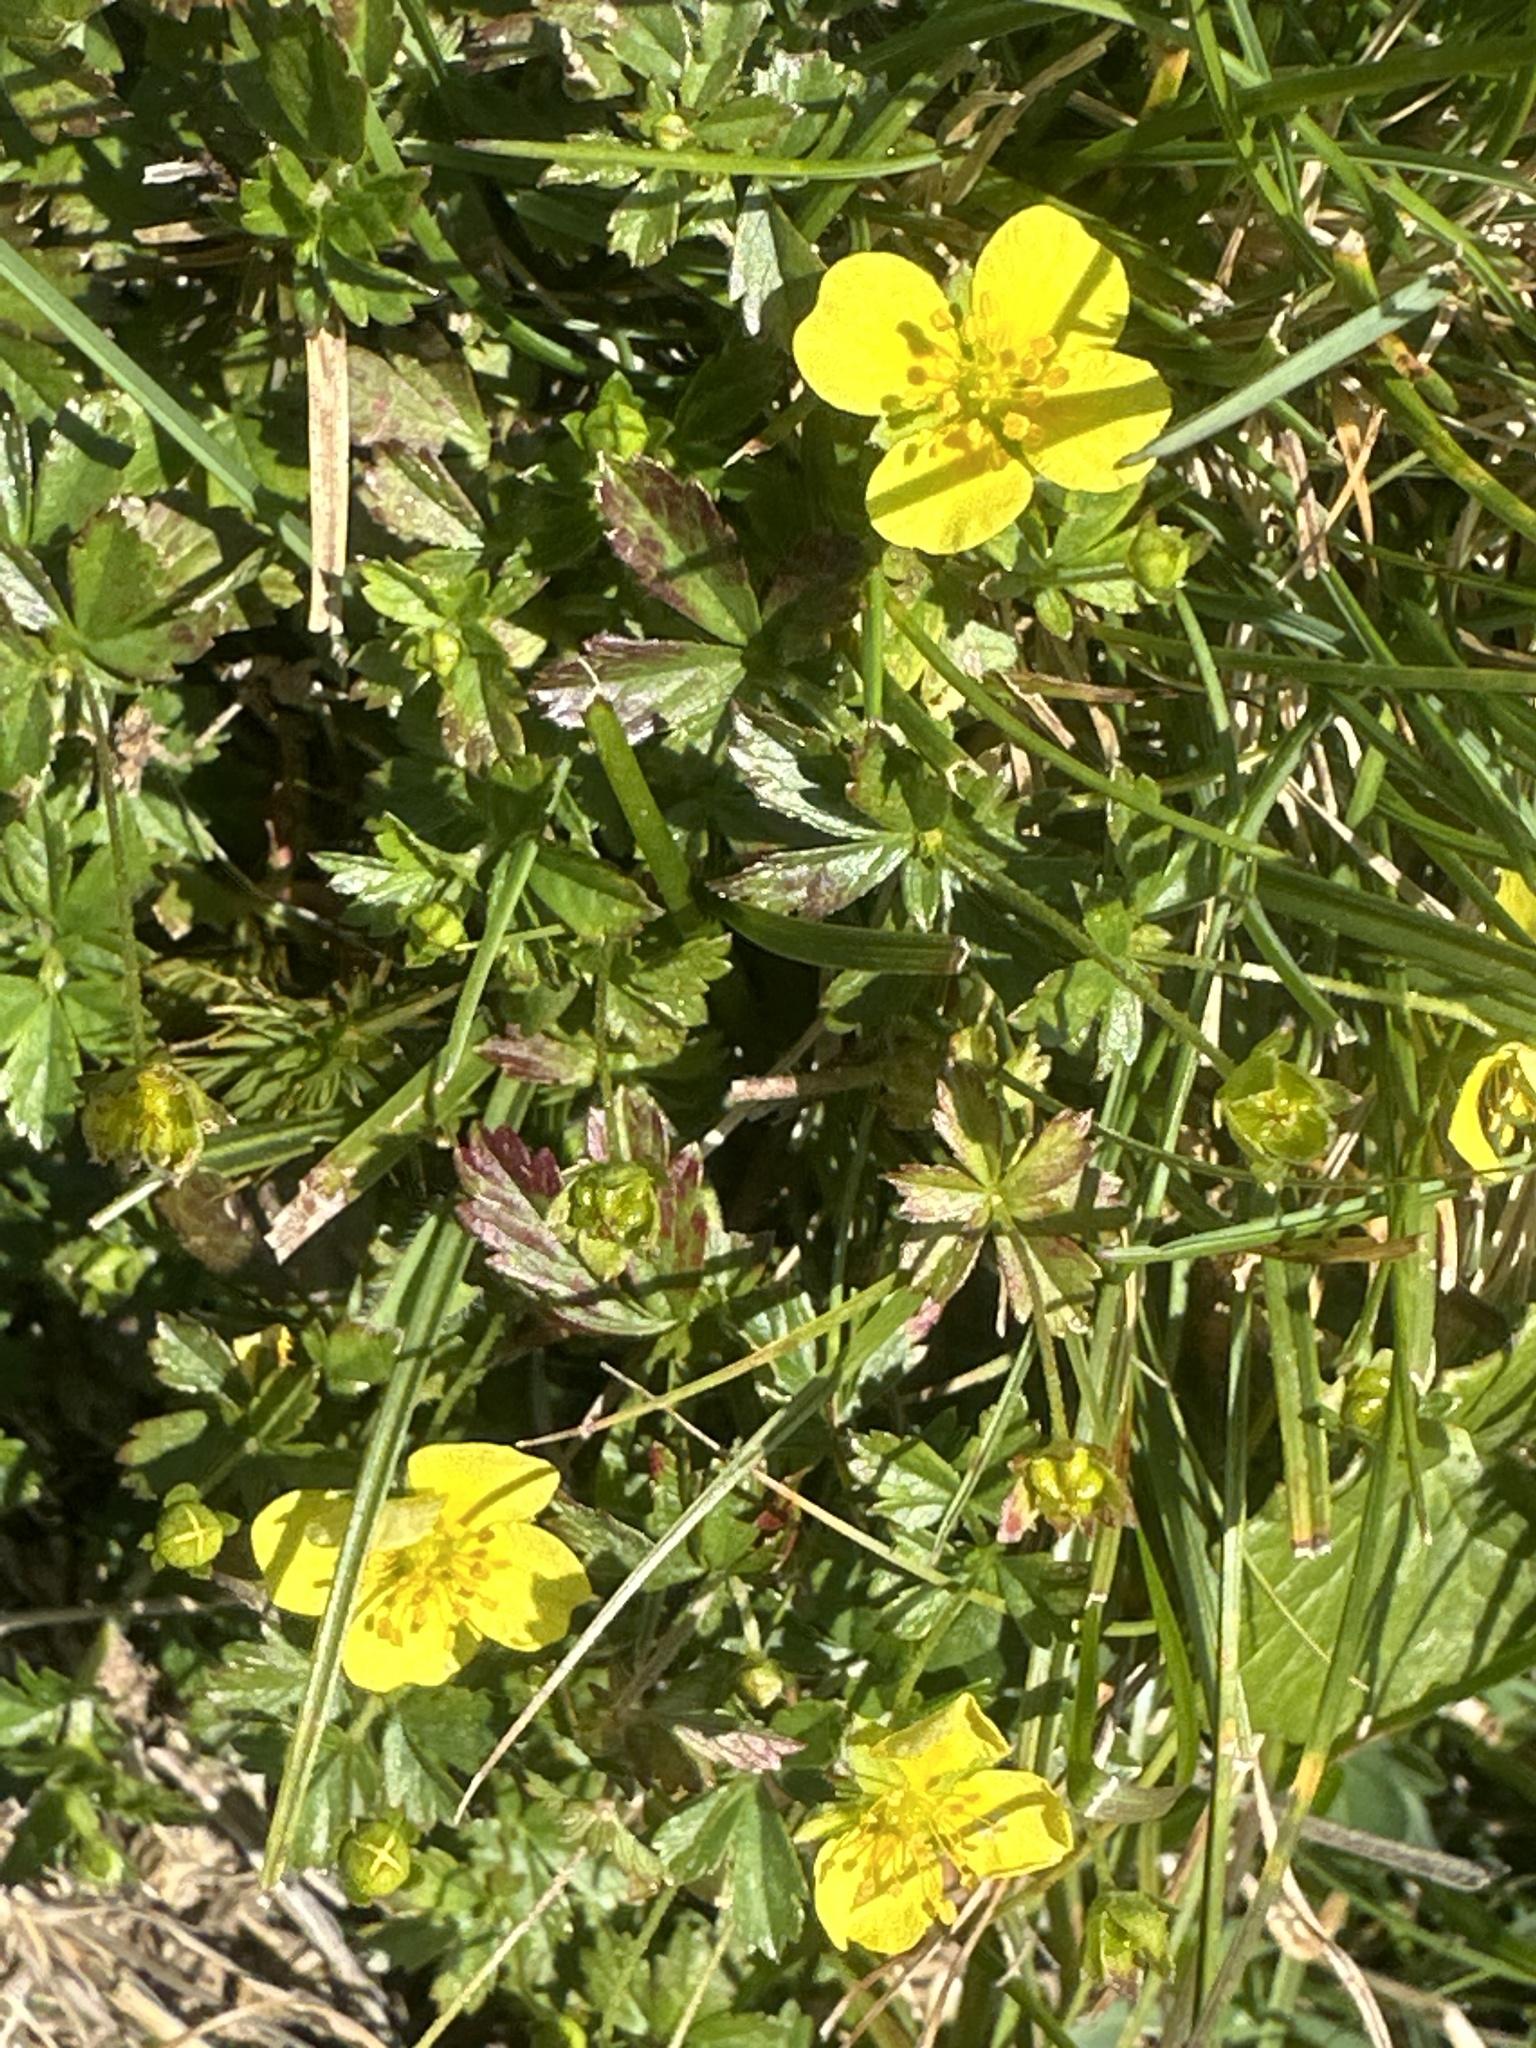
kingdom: Plantae
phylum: Tracheophyta
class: Magnoliopsida
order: Rosales
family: Rosaceae
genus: Potentilla
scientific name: Potentilla erecta
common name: Tormentil
